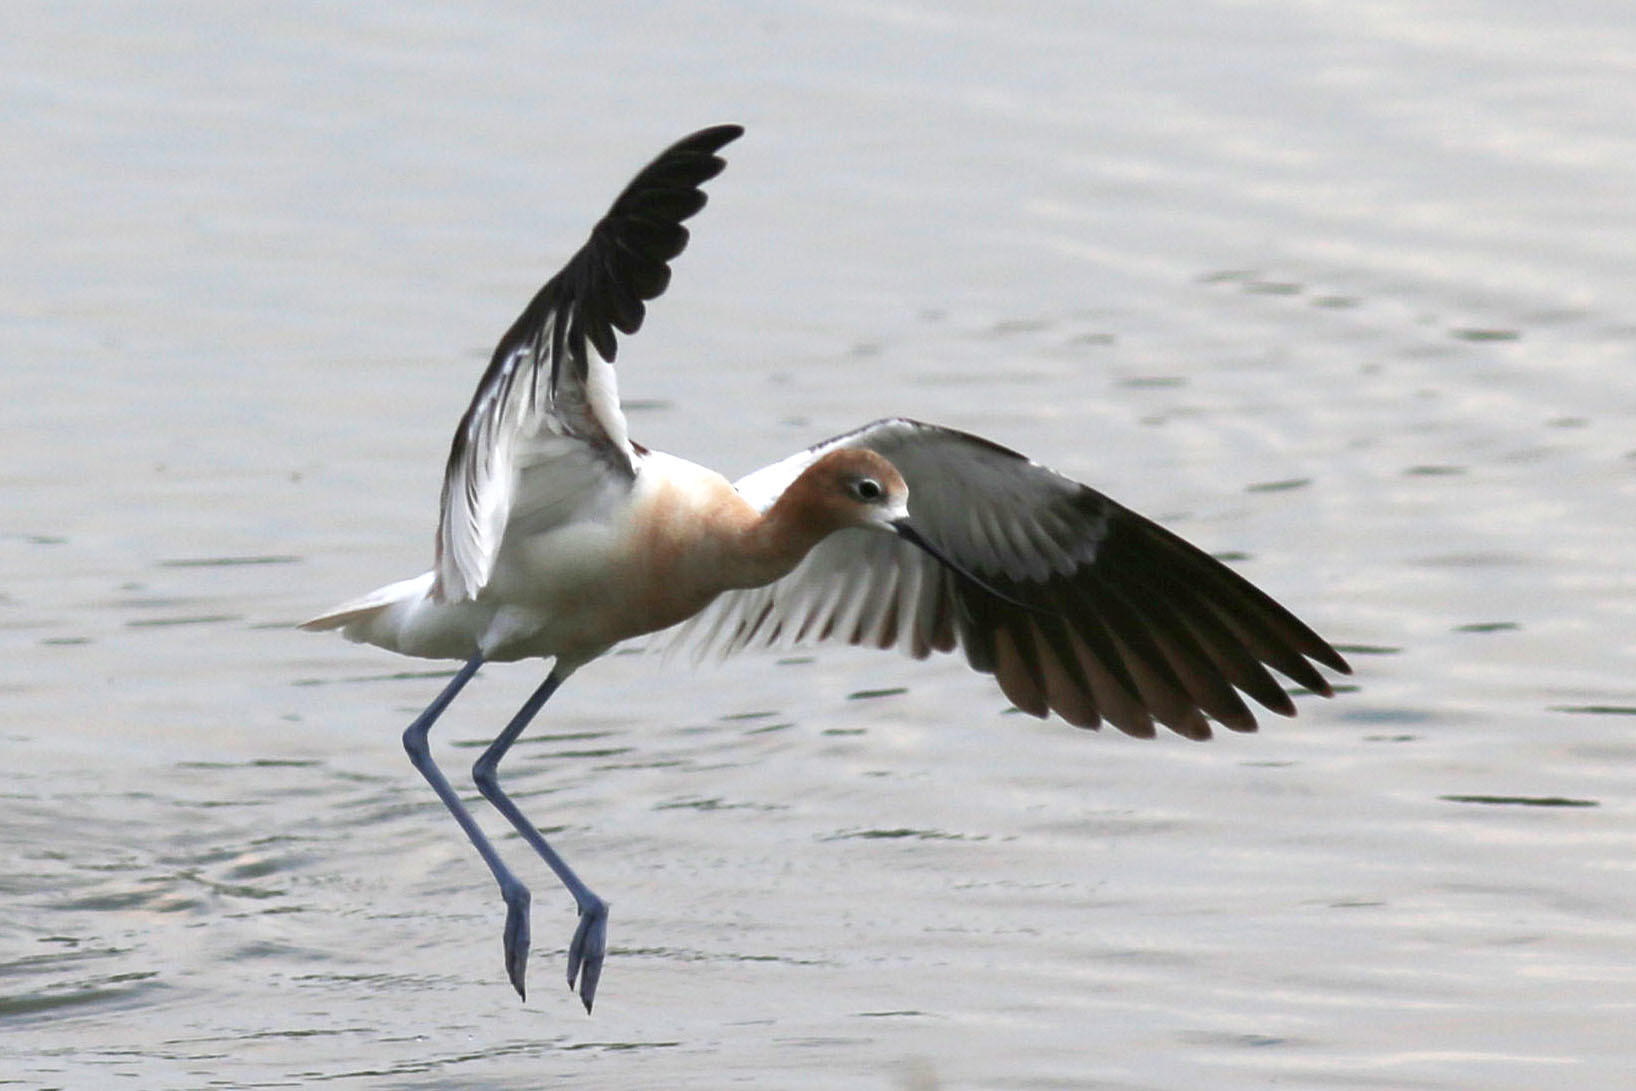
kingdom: Animalia
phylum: Chordata
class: Aves
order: Charadriiformes
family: Recurvirostridae
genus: Recurvirostra
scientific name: Recurvirostra americana
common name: American avocet
